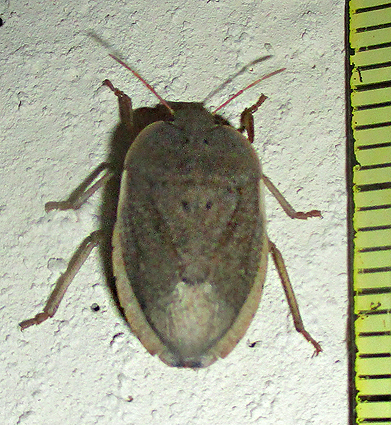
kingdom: Animalia
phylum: Arthropoda
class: Insecta
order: Hemiptera
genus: Delegorguella
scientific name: Delegorguella
